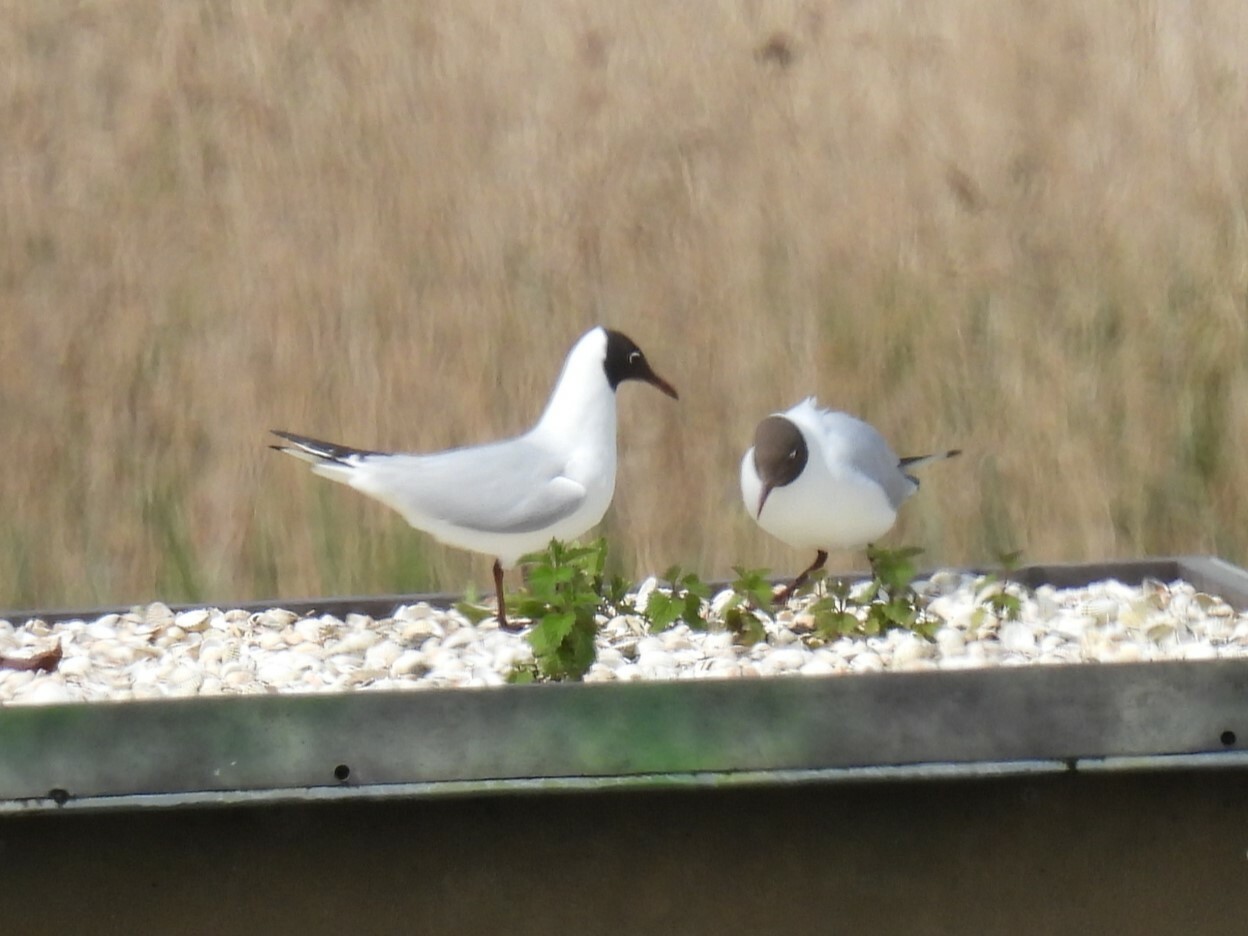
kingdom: Animalia
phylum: Chordata
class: Aves
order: Charadriiformes
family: Laridae
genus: Chroicocephalus
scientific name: Chroicocephalus ridibundus
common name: Black-headed gull
